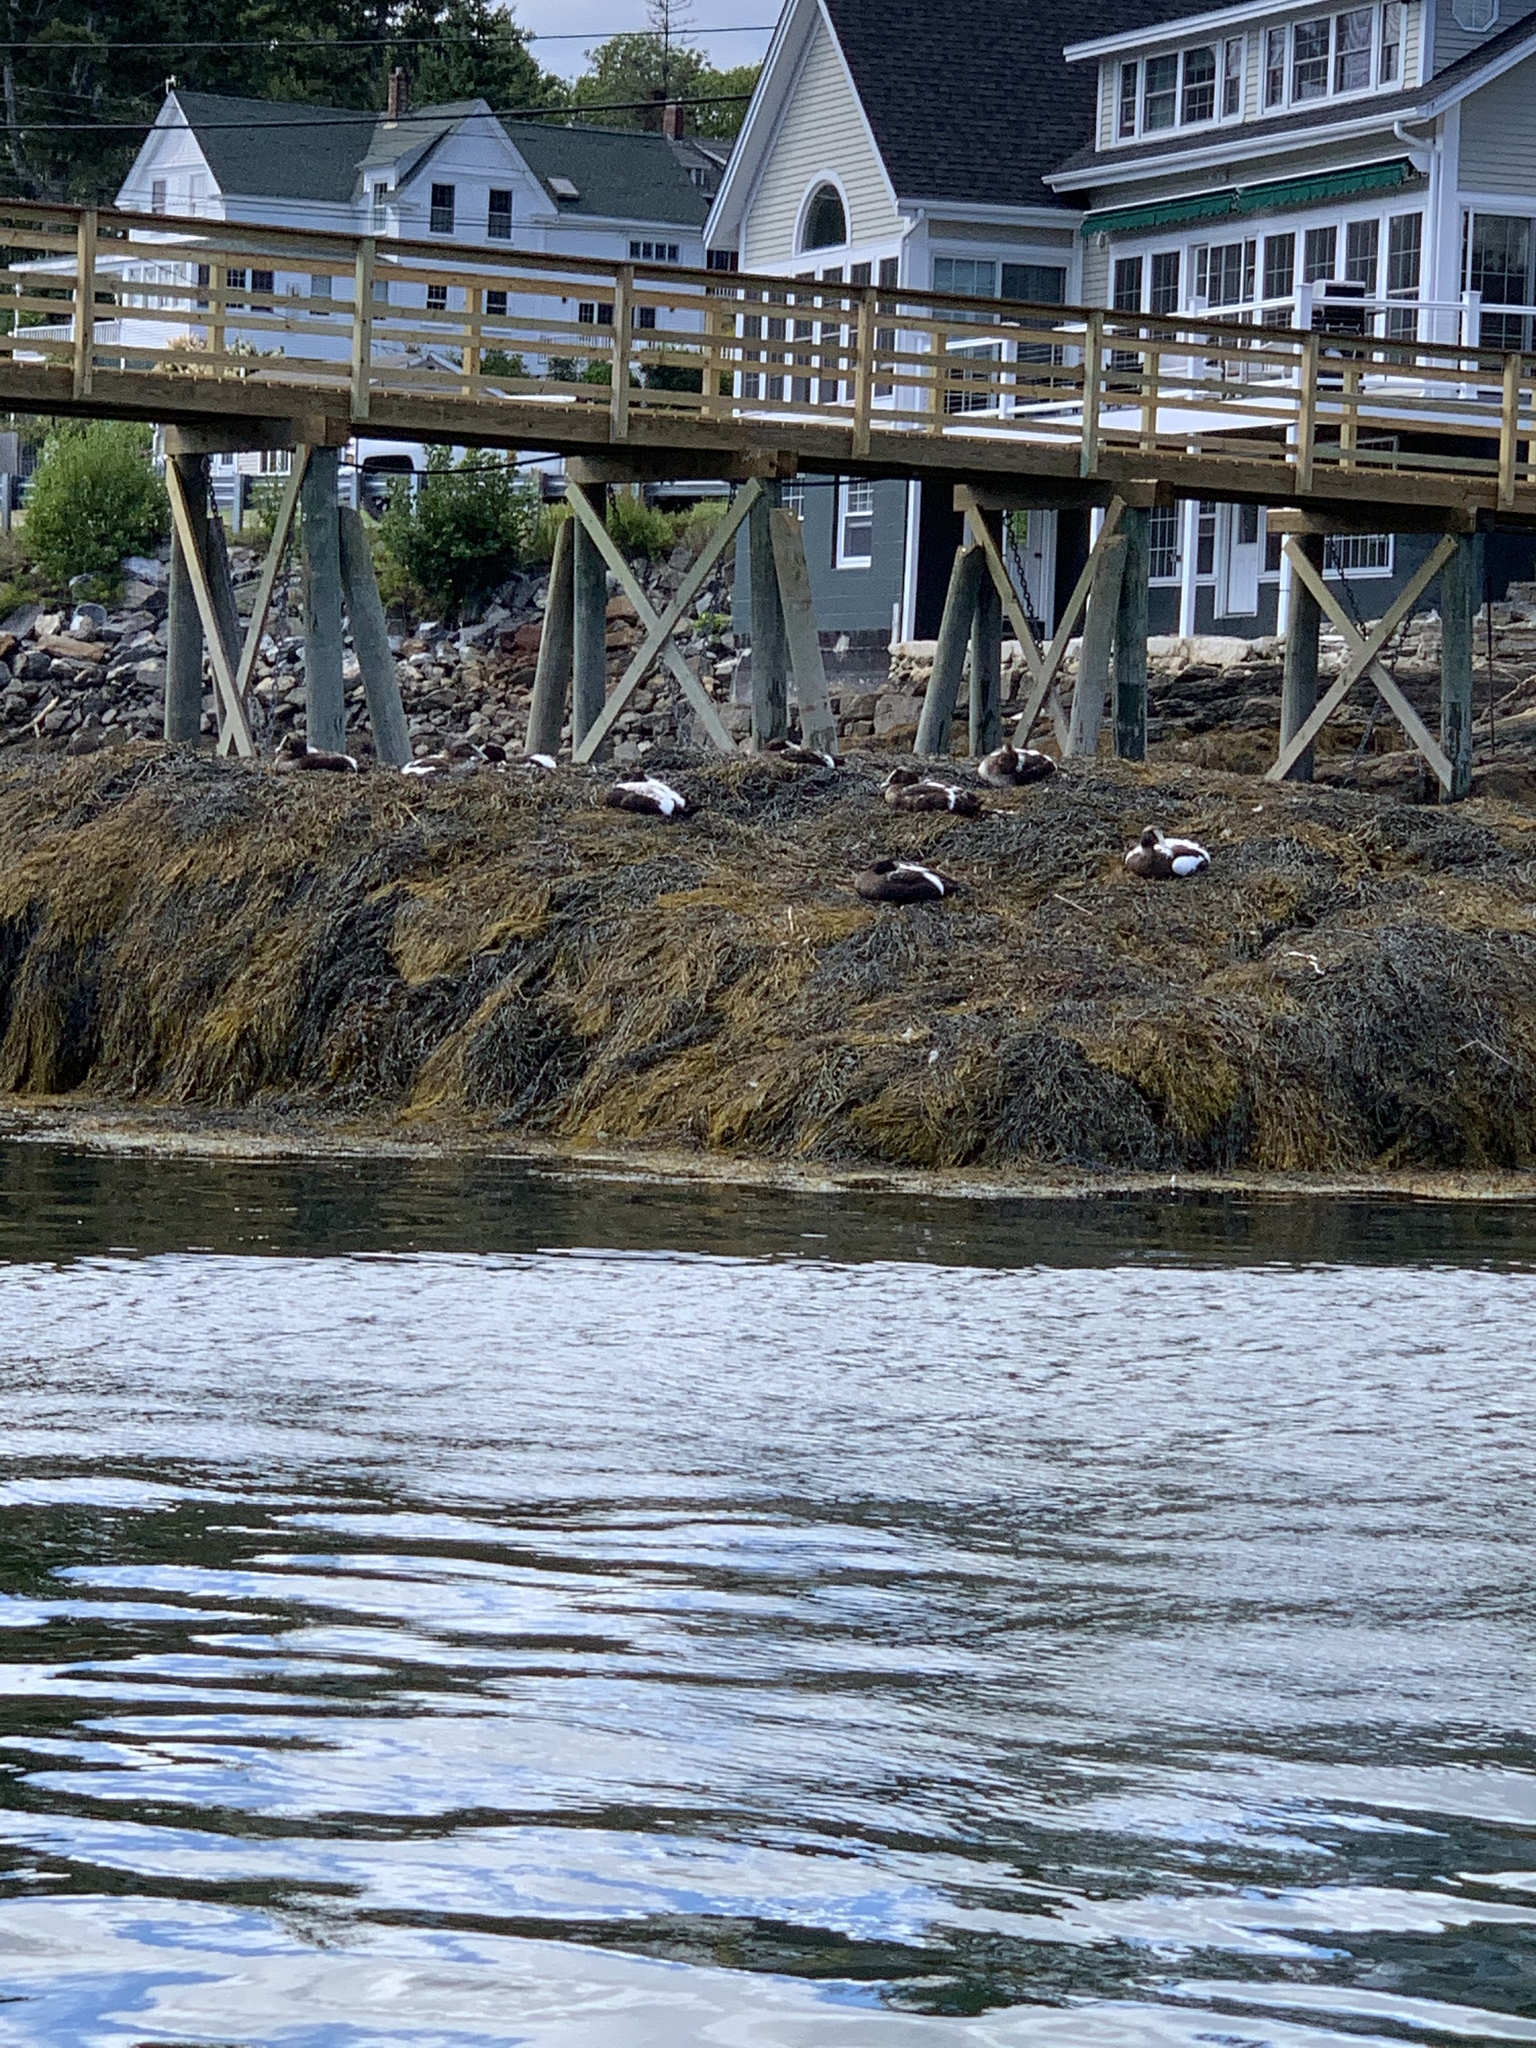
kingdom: Animalia
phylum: Chordata
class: Aves
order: Anseriformes
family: Anatidae
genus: Somateria
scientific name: Somateria mollissima
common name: Common eider
